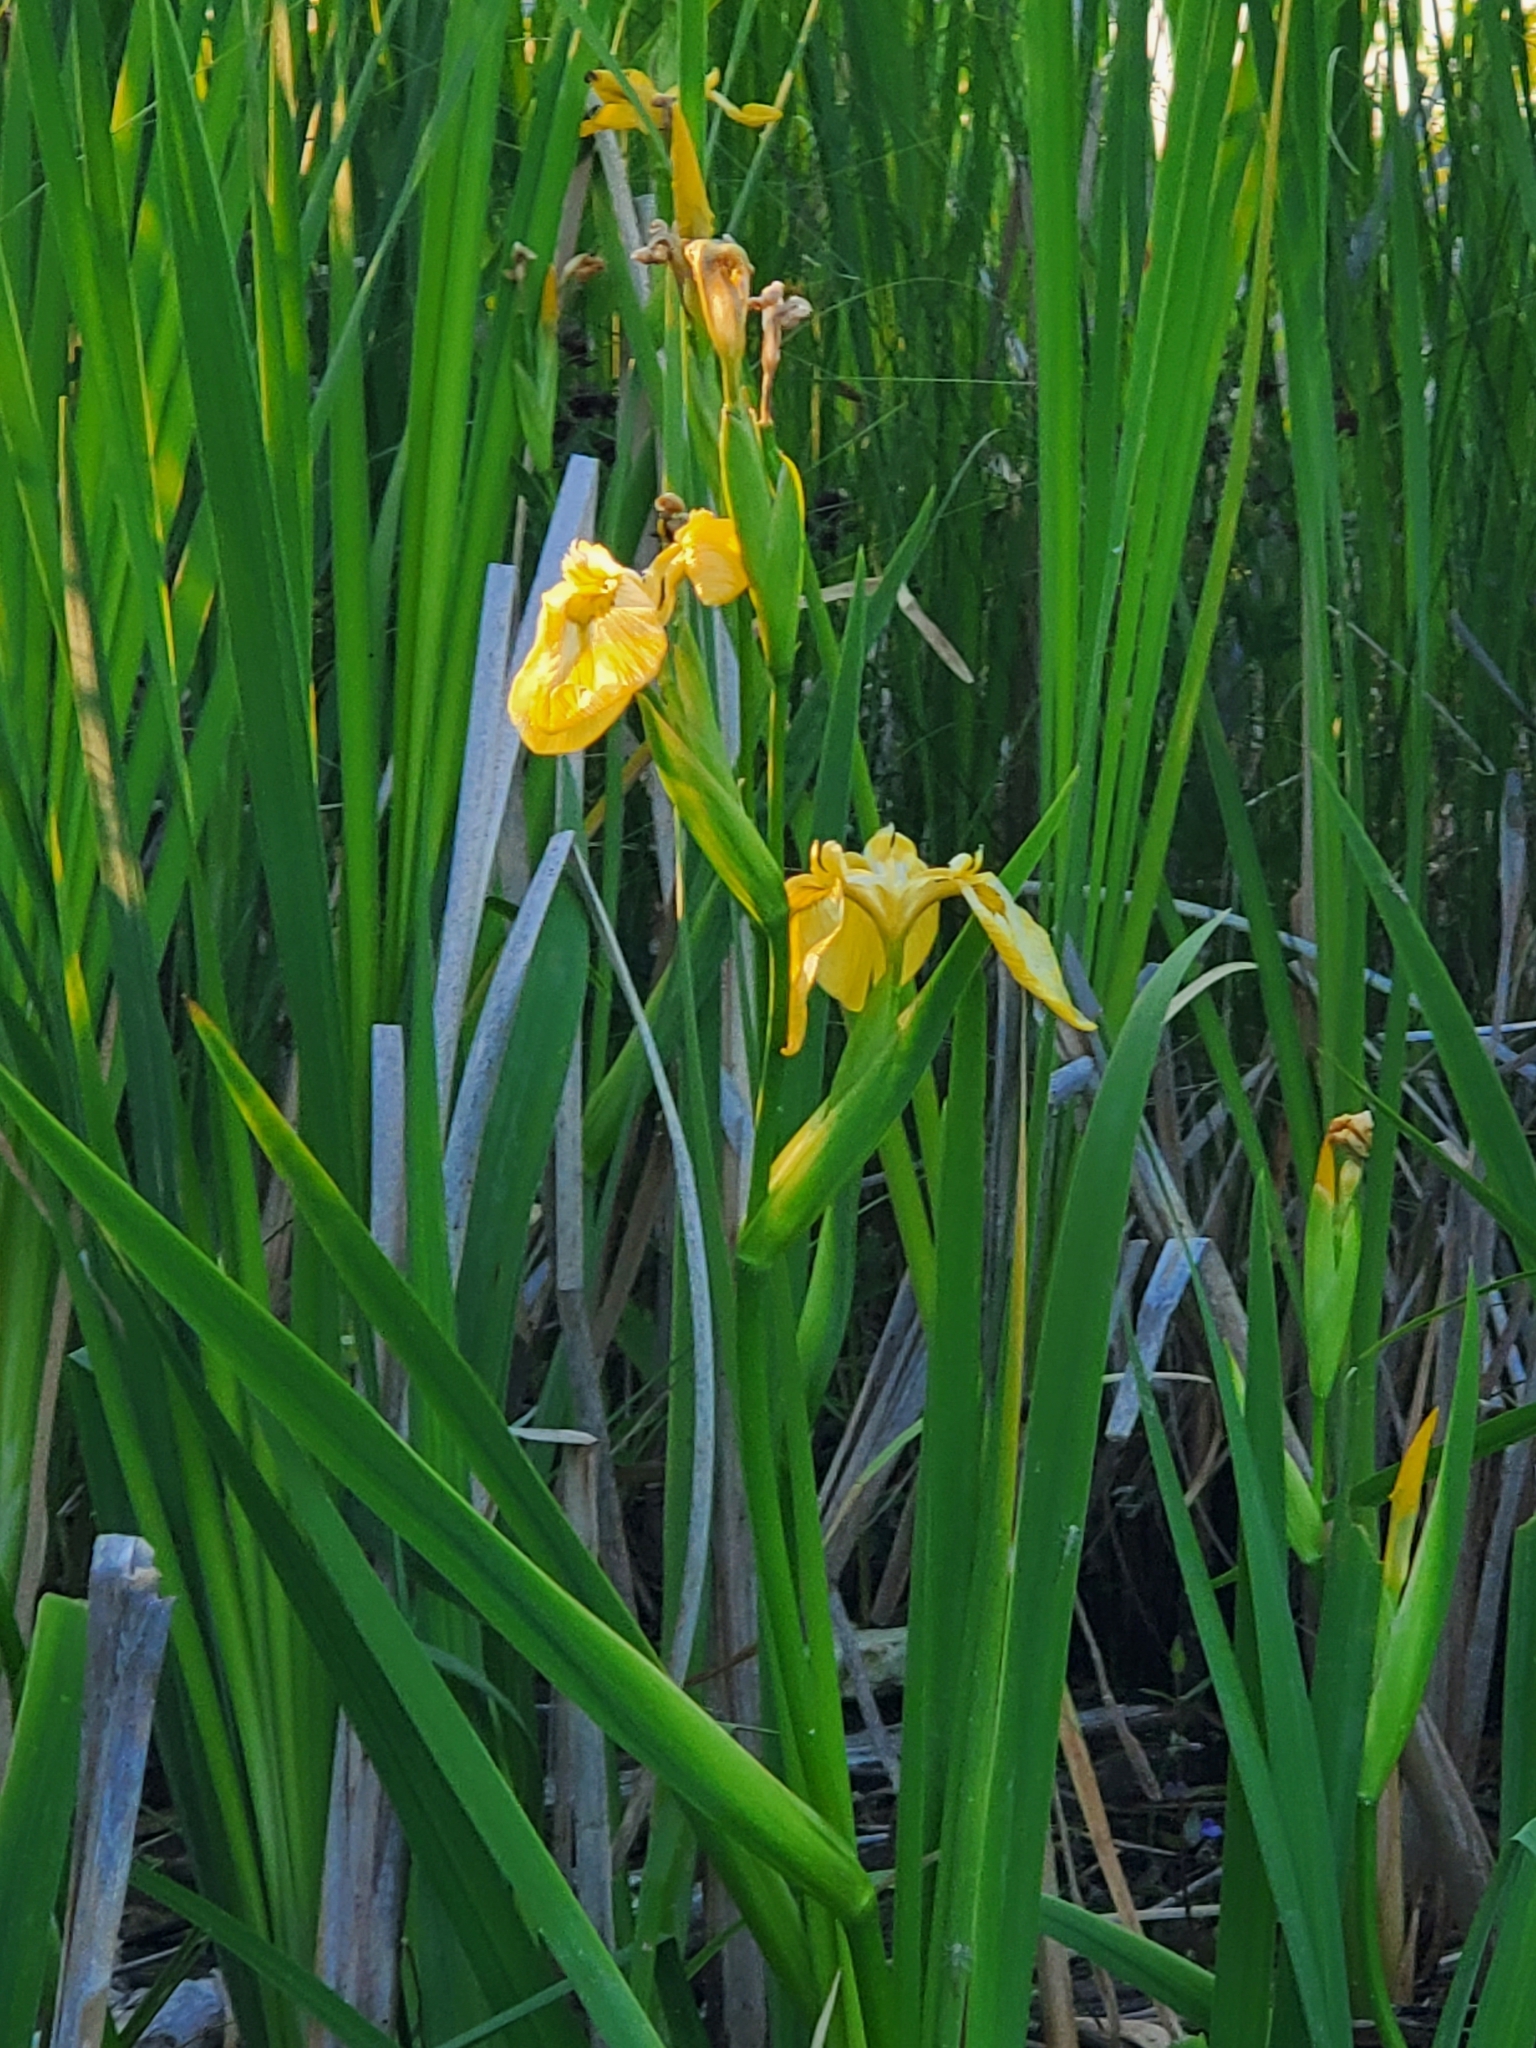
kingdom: Plantae
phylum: Tracheophyta
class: Liliopsida
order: Asparagales
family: Iridaceae
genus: Iris
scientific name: Iris pseudacorus
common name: Yellow flag
